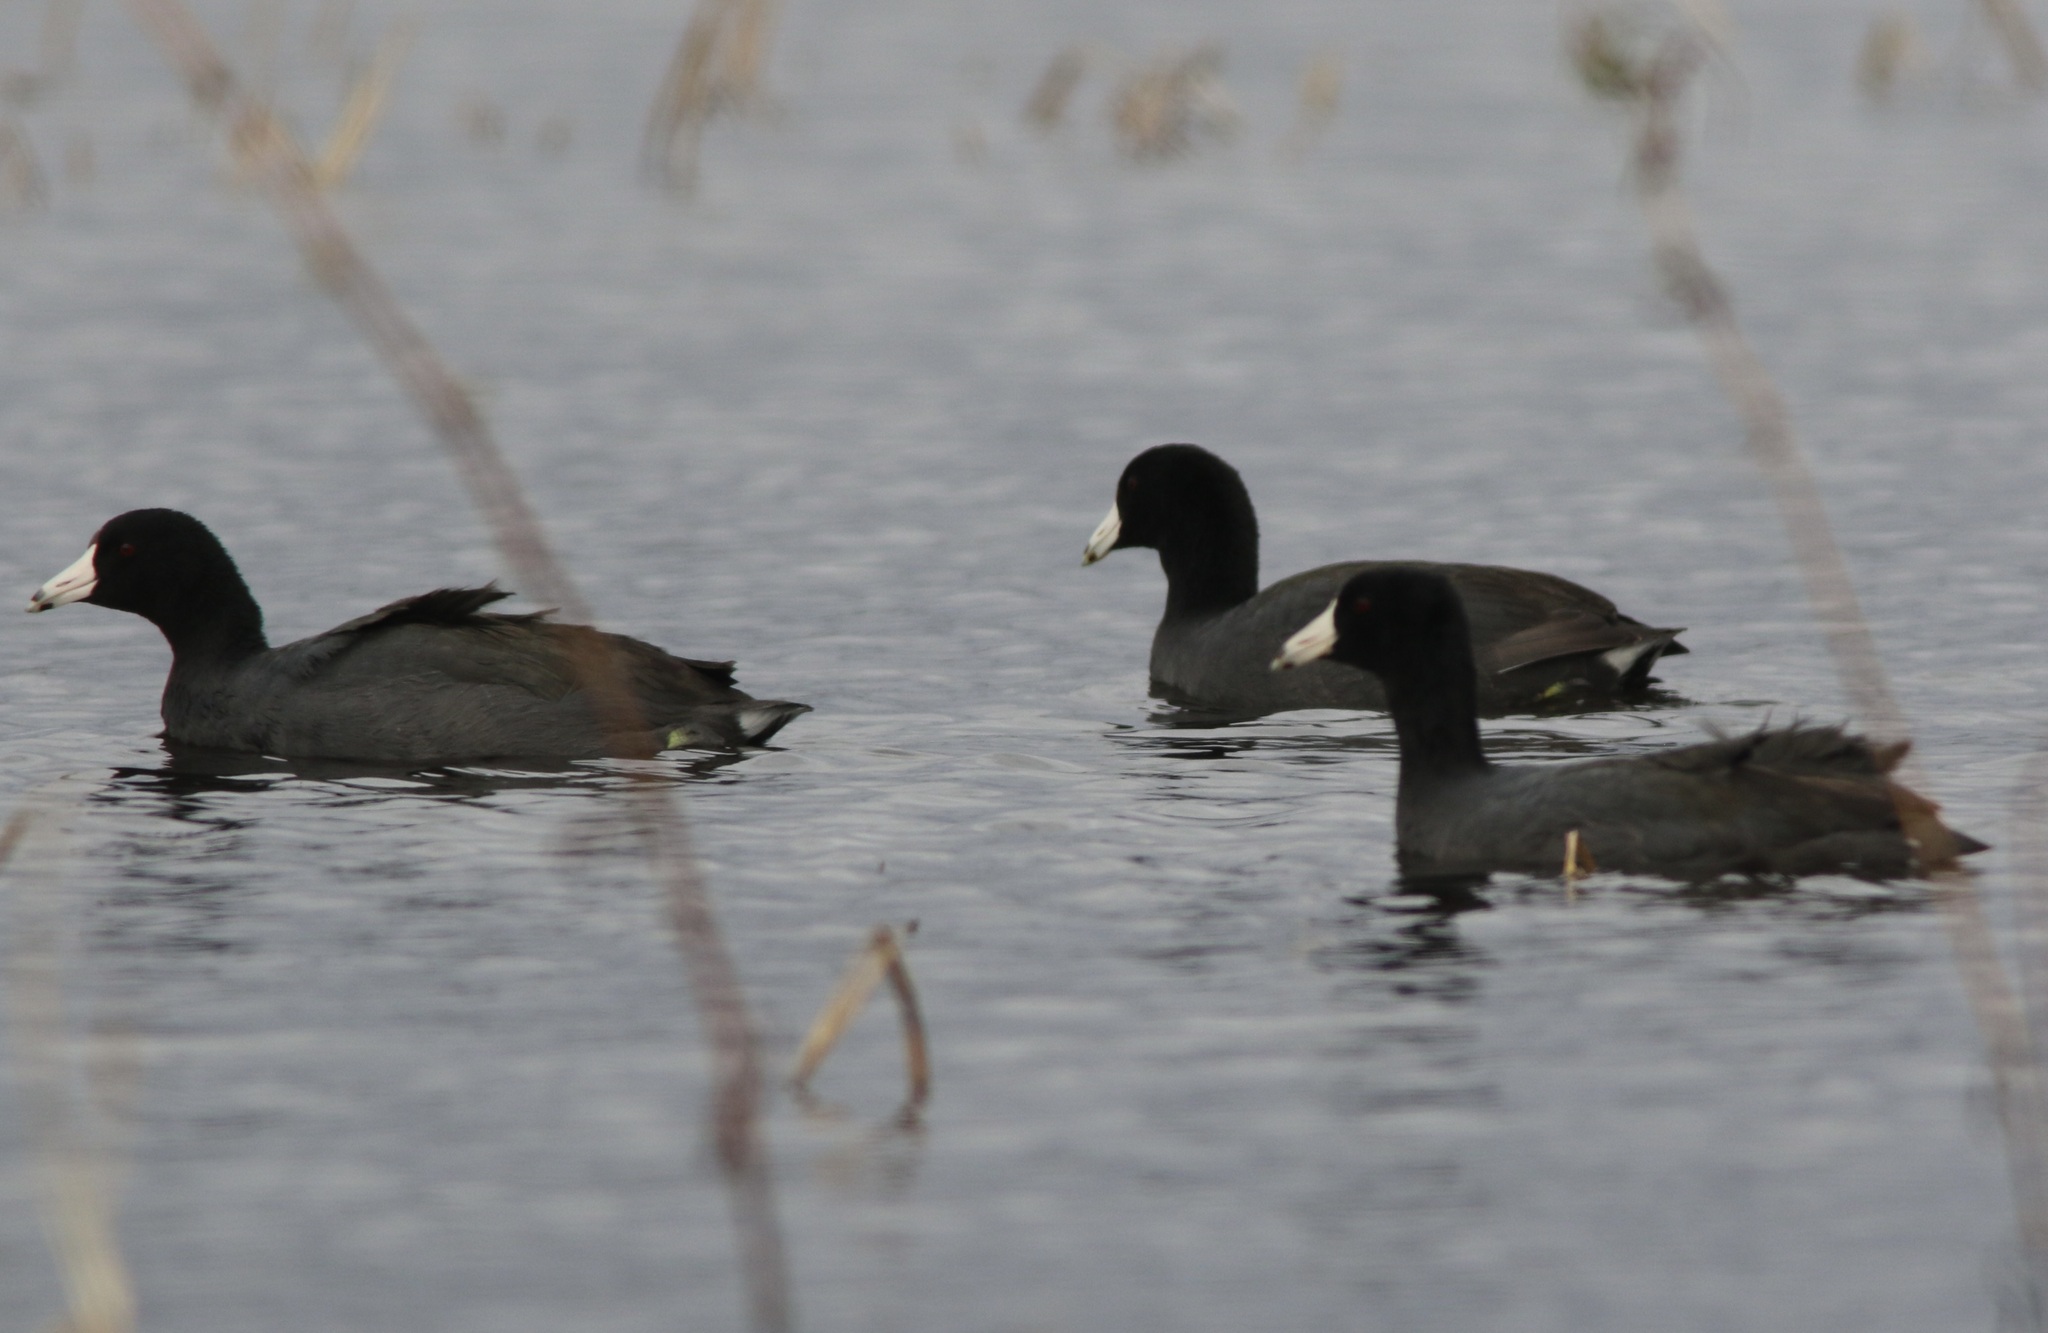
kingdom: Animalia
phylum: Chordata
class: Aves
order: Gruiformes
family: Rallidae
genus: Fulica
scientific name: Fulica americana
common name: American coot
